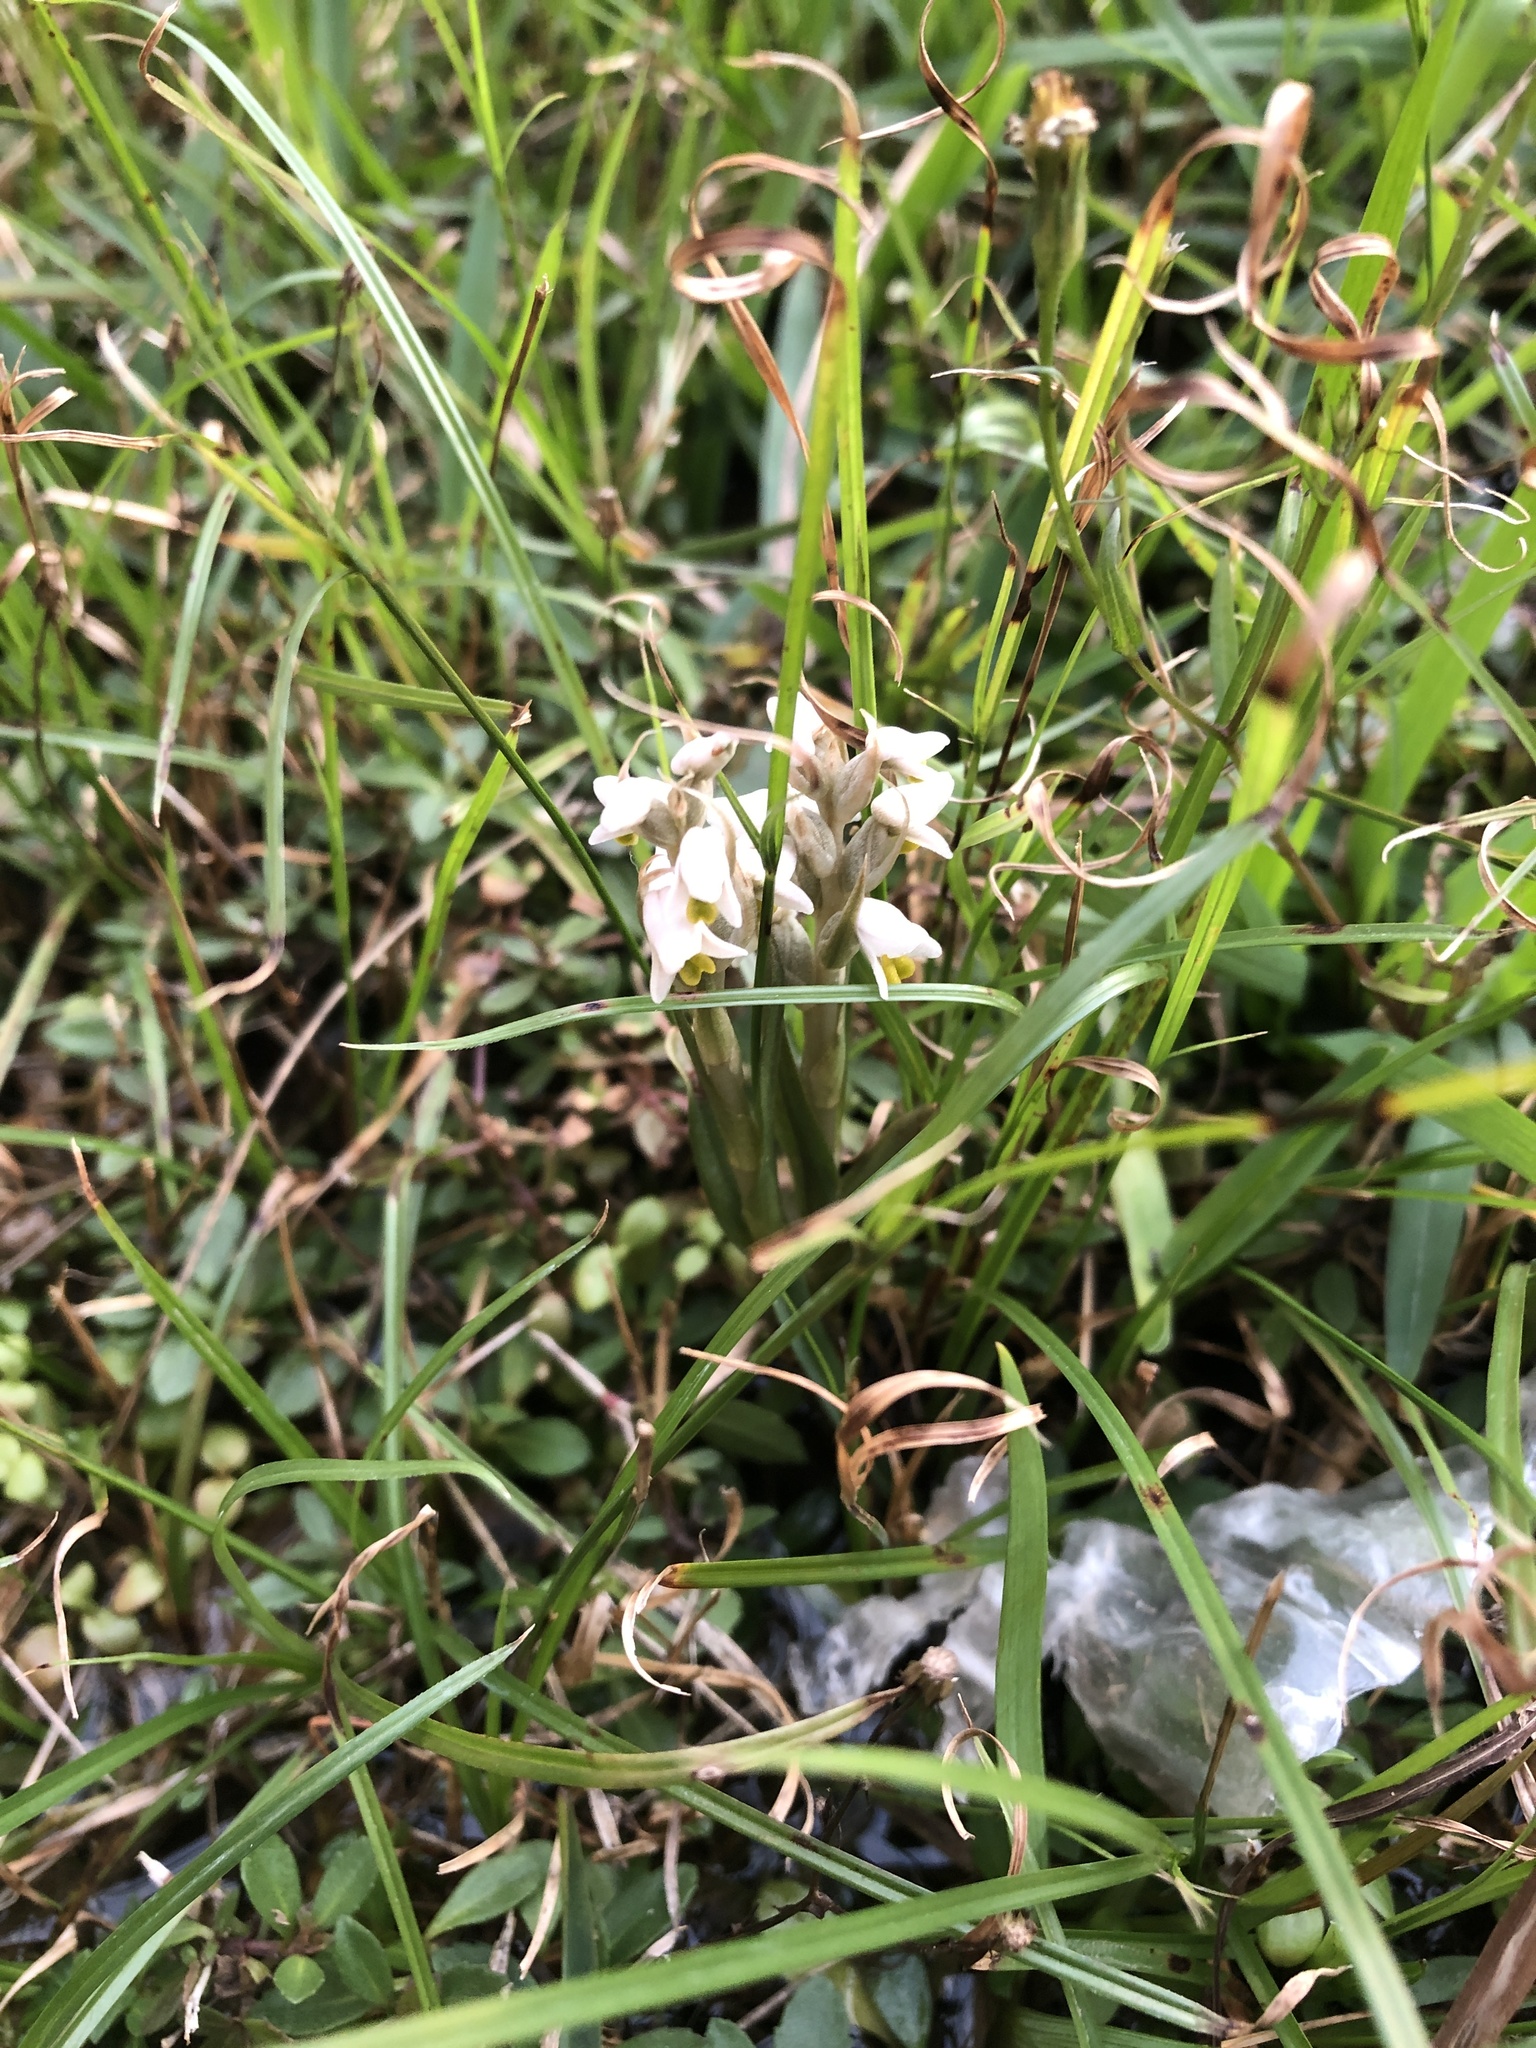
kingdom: Plantae
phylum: Tracheophyta
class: Liliopsida
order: Asparagales
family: Orchidaceae
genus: Zeuxine
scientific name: Zeuxine strateumatica
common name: Soldier's orchid
